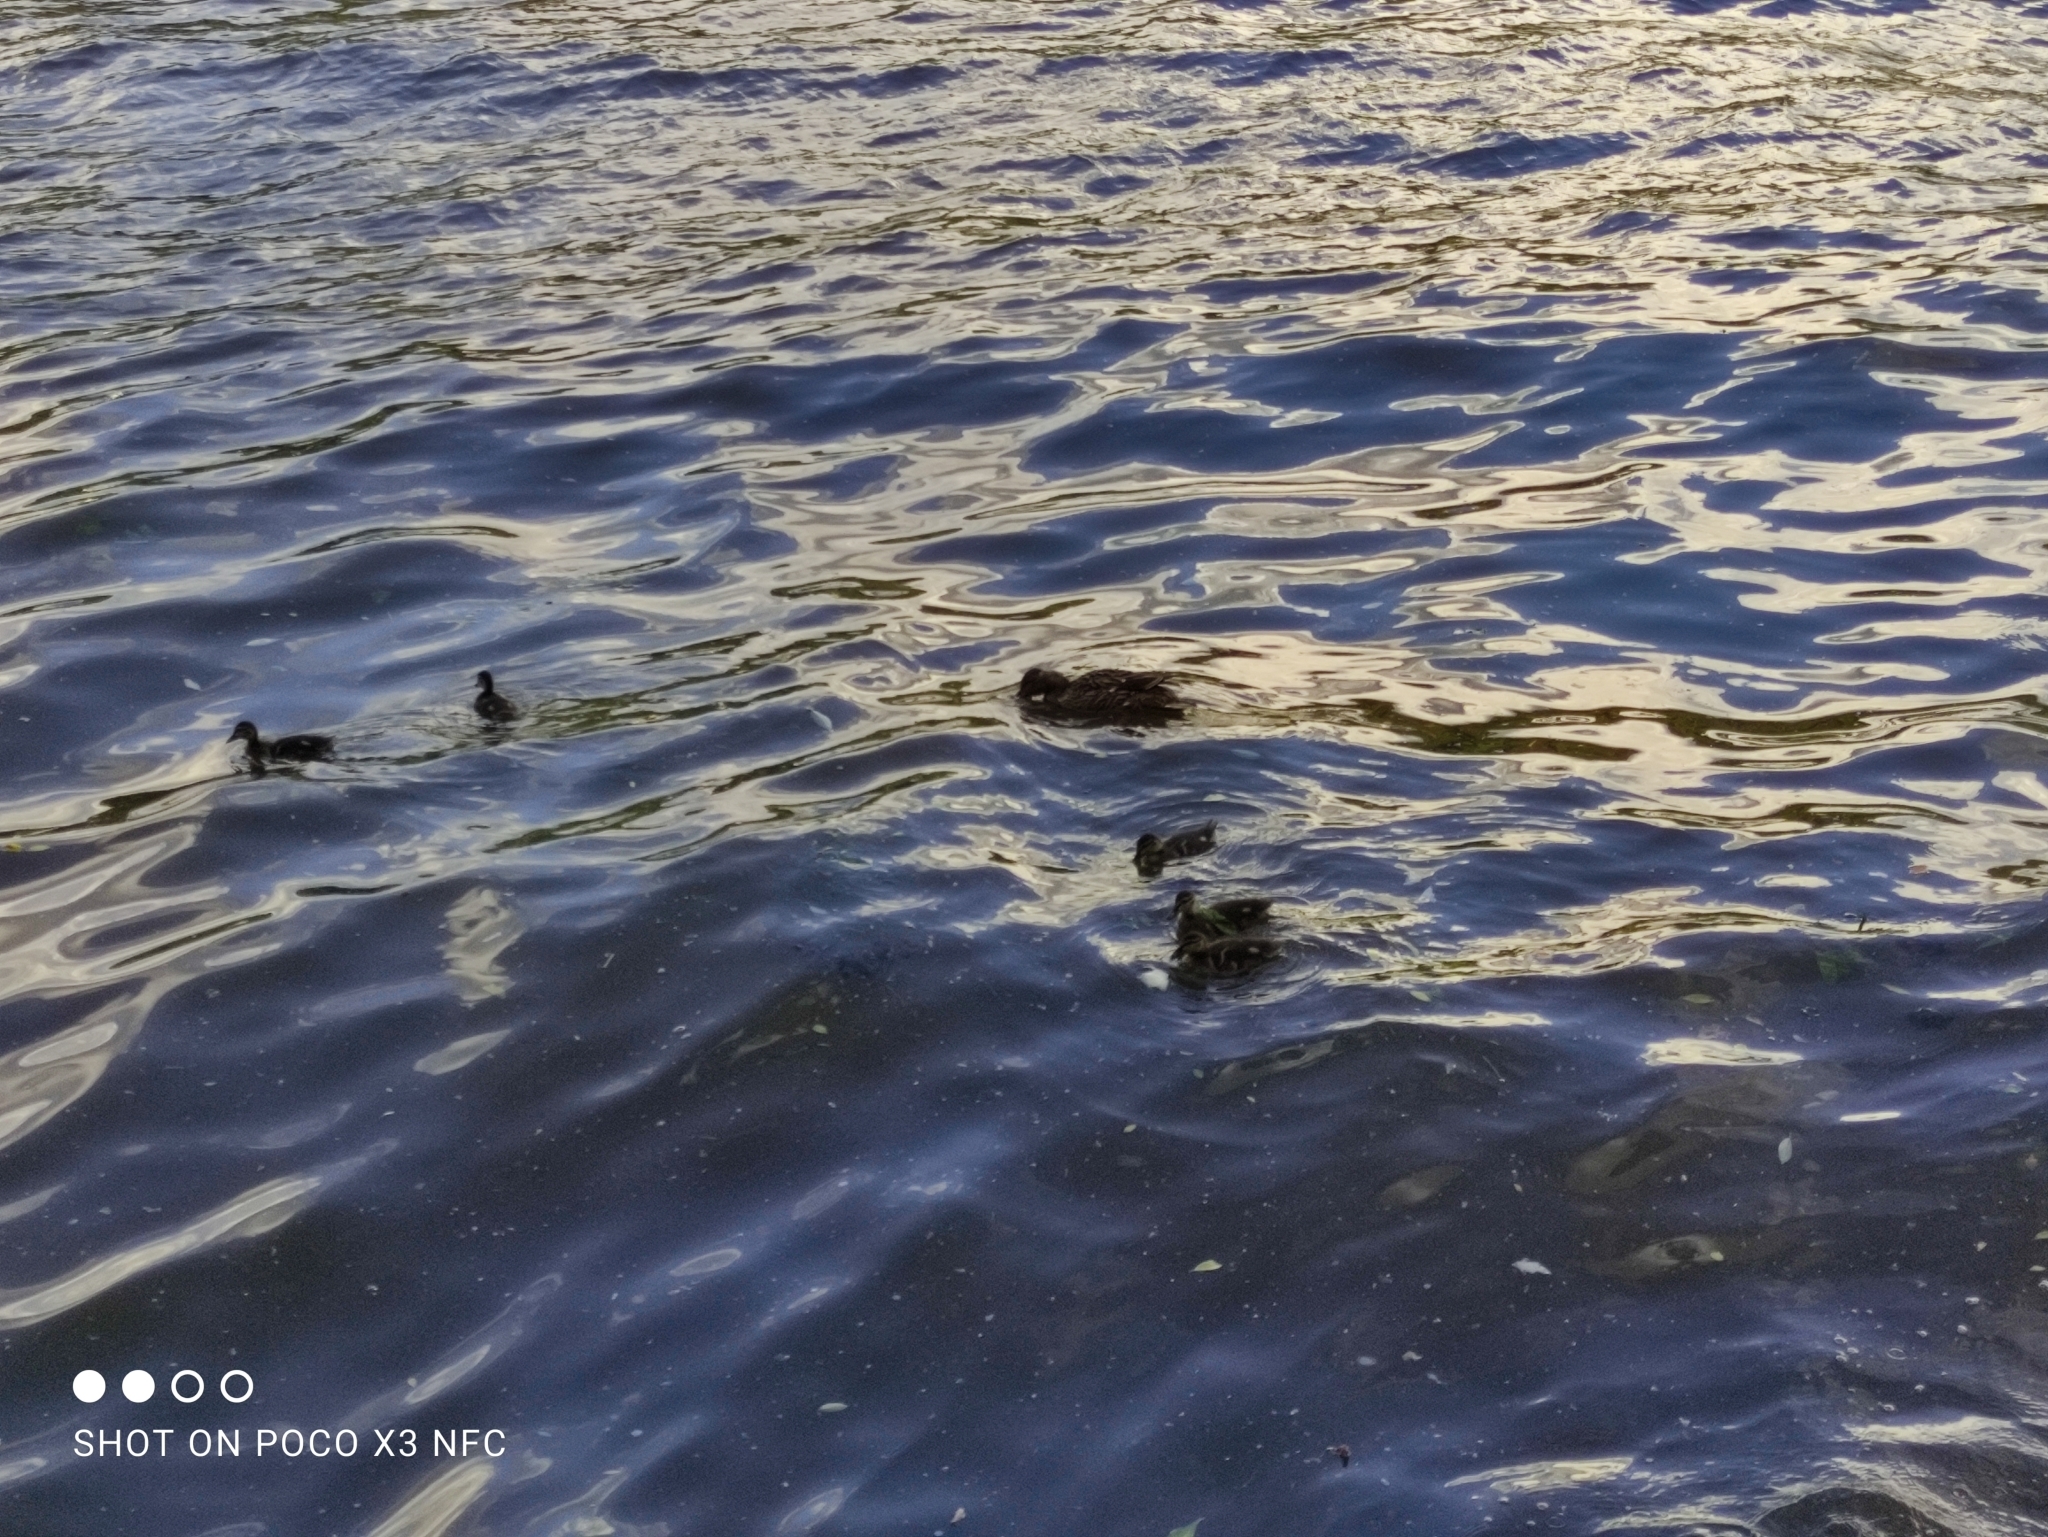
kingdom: Animalia
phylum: Chordata
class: Aves
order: Anseriformes
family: Anatidae
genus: Anas
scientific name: Anas platyrhynchos
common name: Mallard
